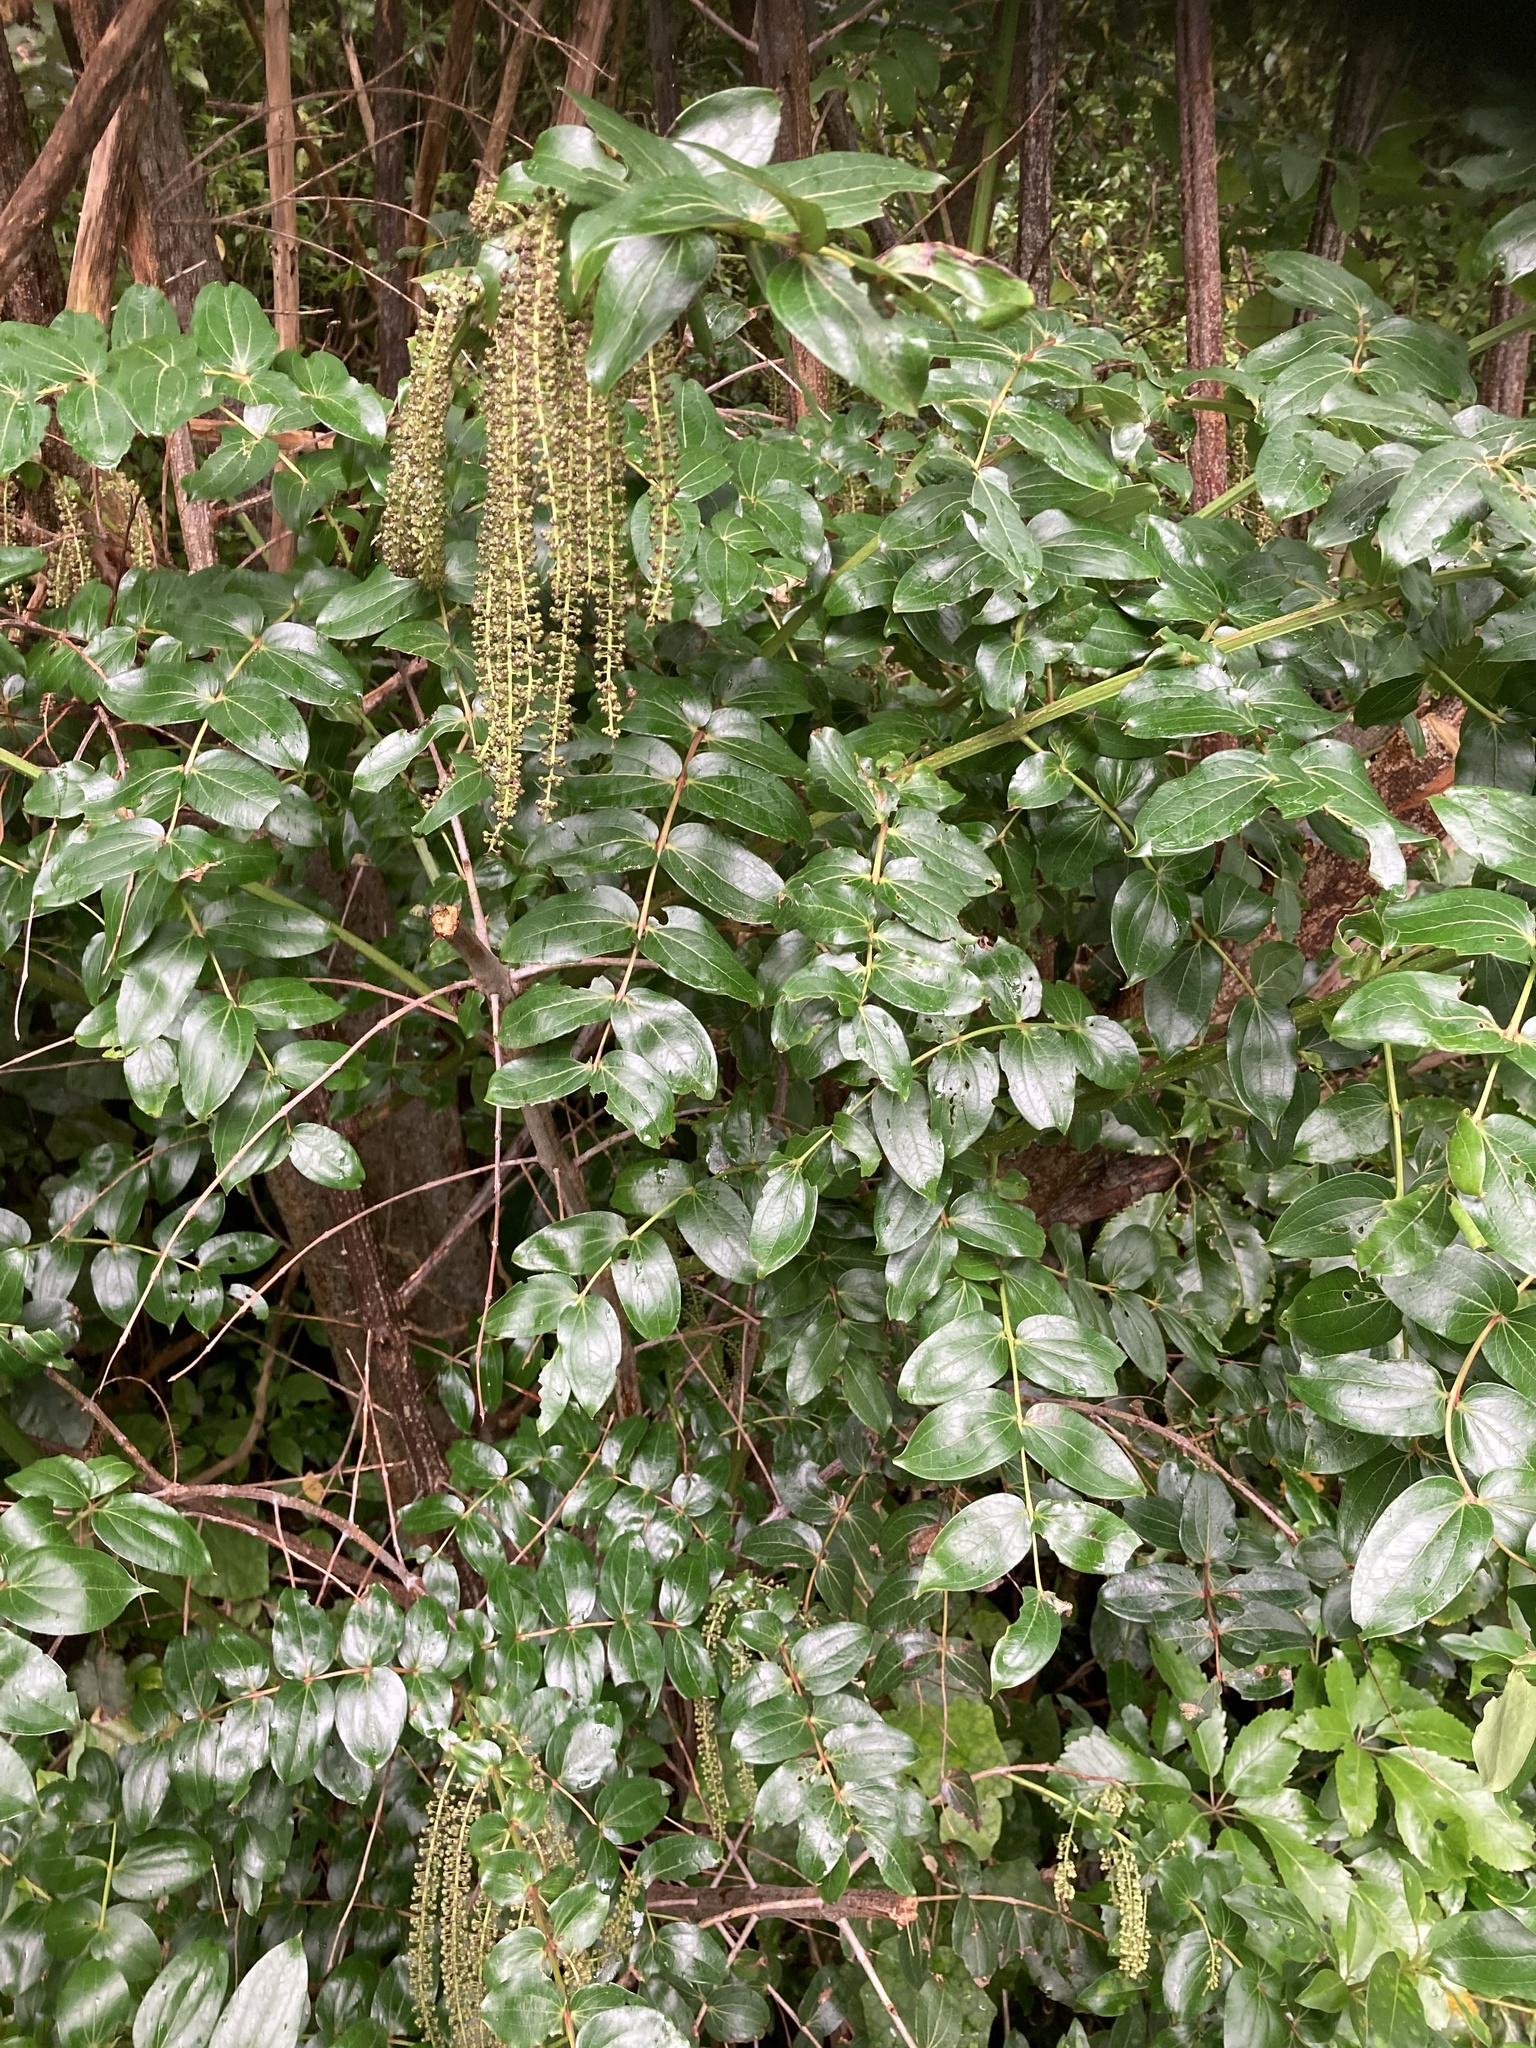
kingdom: Plantae
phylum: Tracheophyta
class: Magnoliopsida
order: Cucurbitales
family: Coriariaceae
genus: Coriaria
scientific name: Coriaria arborea
